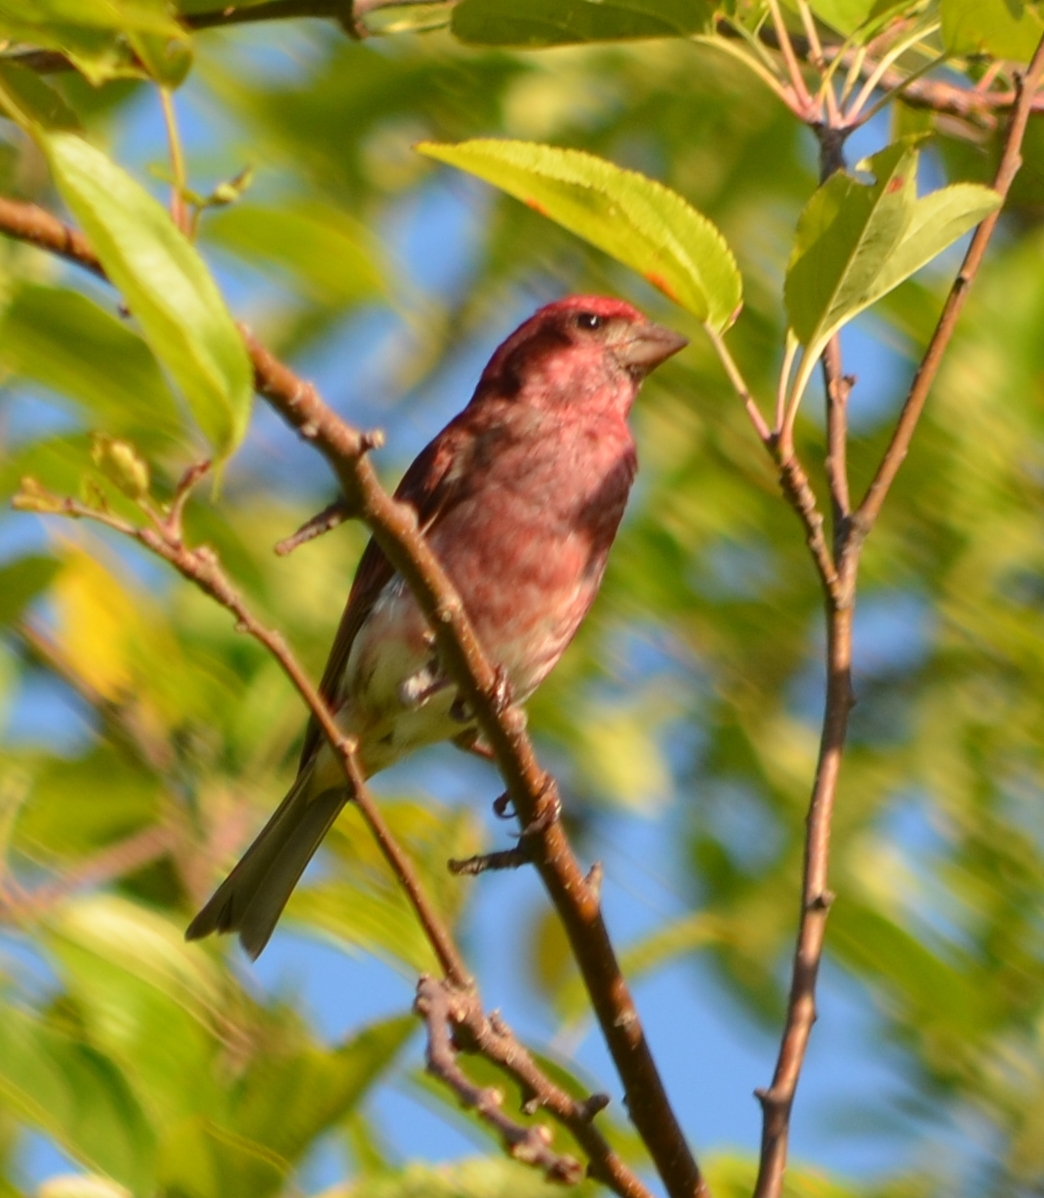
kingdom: Animalia
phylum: Chordata
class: Aves
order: Passeriformes
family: Fringillidae
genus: Haemorhous
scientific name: Haemorhous purpureus
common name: Purple finch
